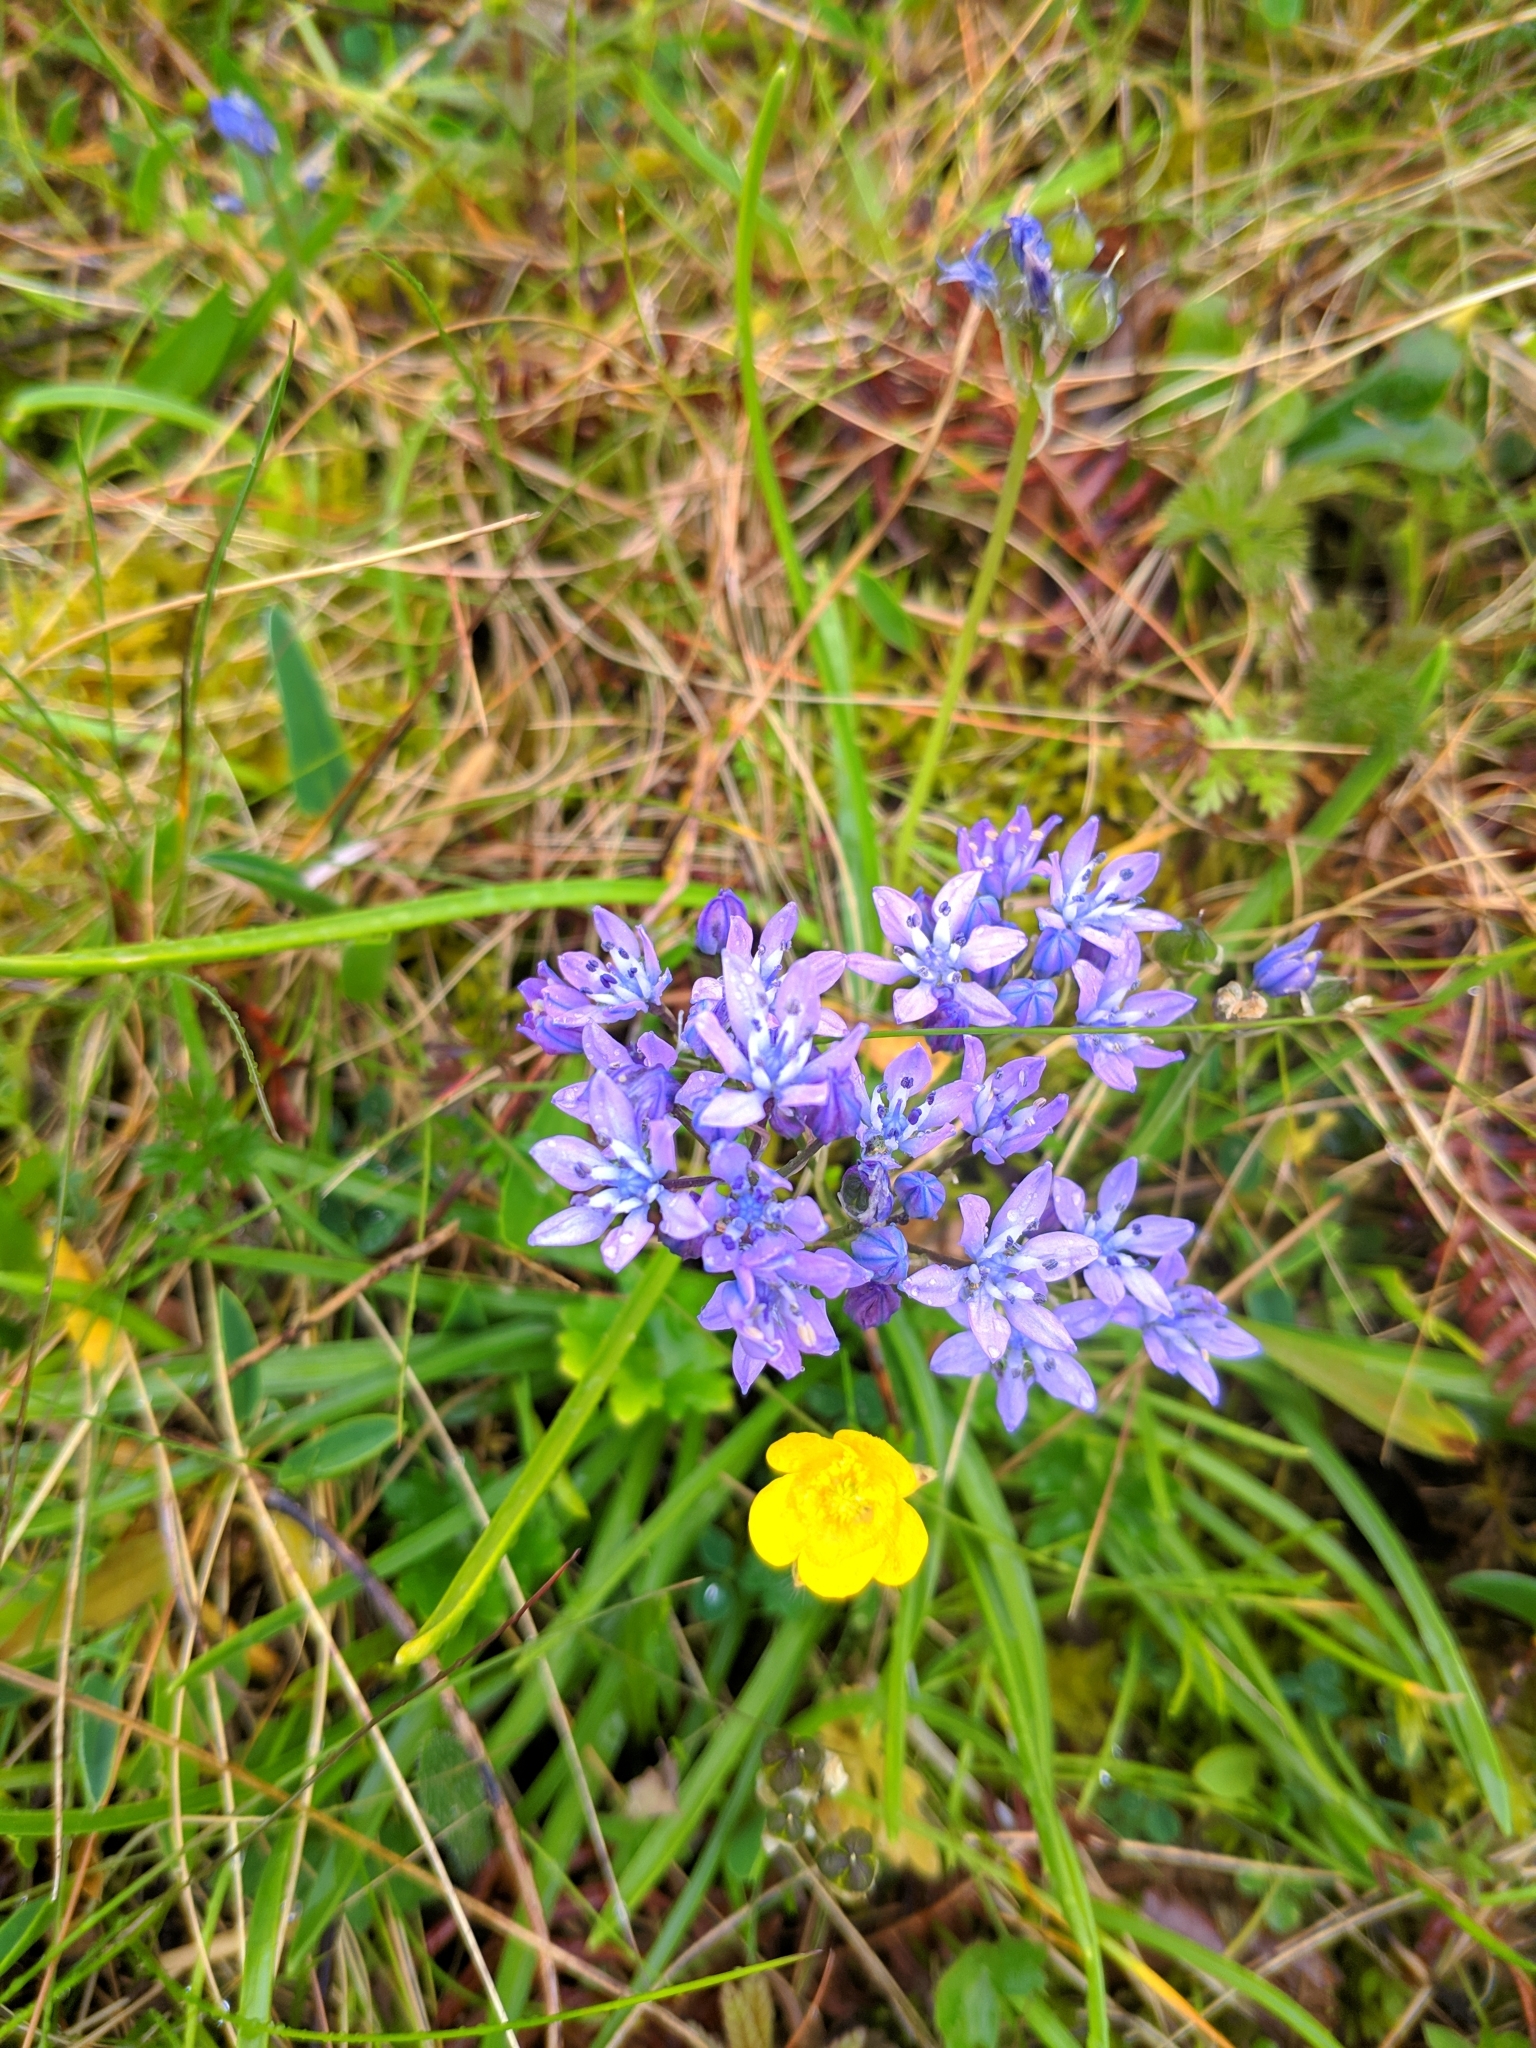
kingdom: Plantae
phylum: Tracheophyta
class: Liliopsida
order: Asparagales
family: Asparagaceae
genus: Scilla
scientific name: Scilla verna
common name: Spring squill
